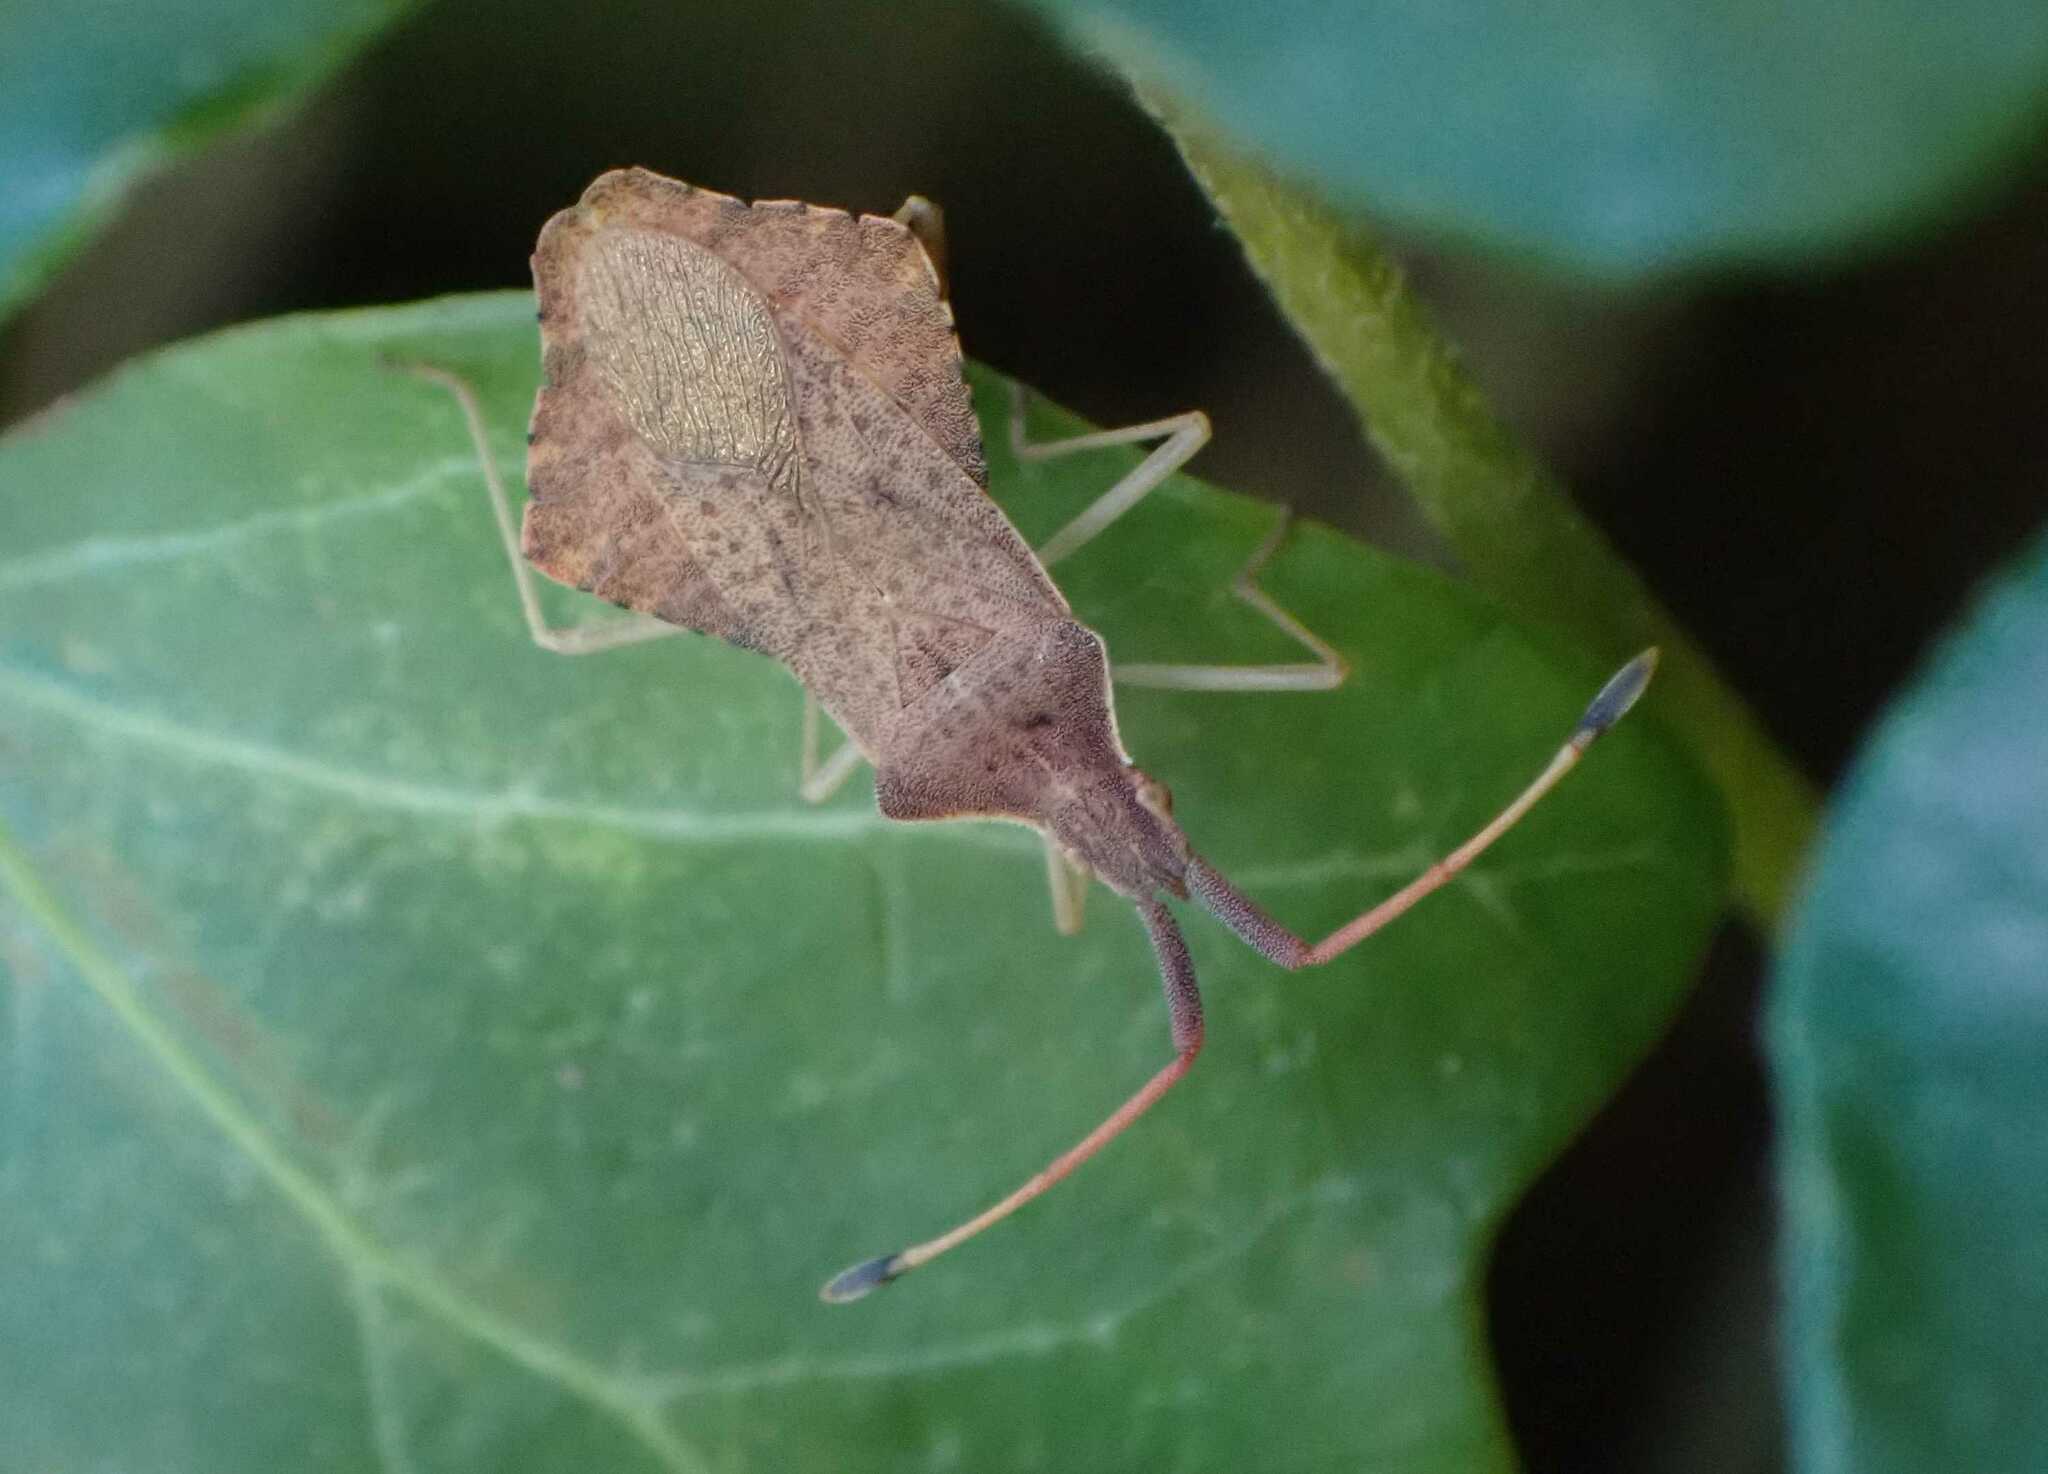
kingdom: Animalia
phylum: Arthropoda
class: Insecta
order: Hemiptera
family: Coreidae
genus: Syromastus
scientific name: Syromastus rhombeus
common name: Rhombic leatherbug
